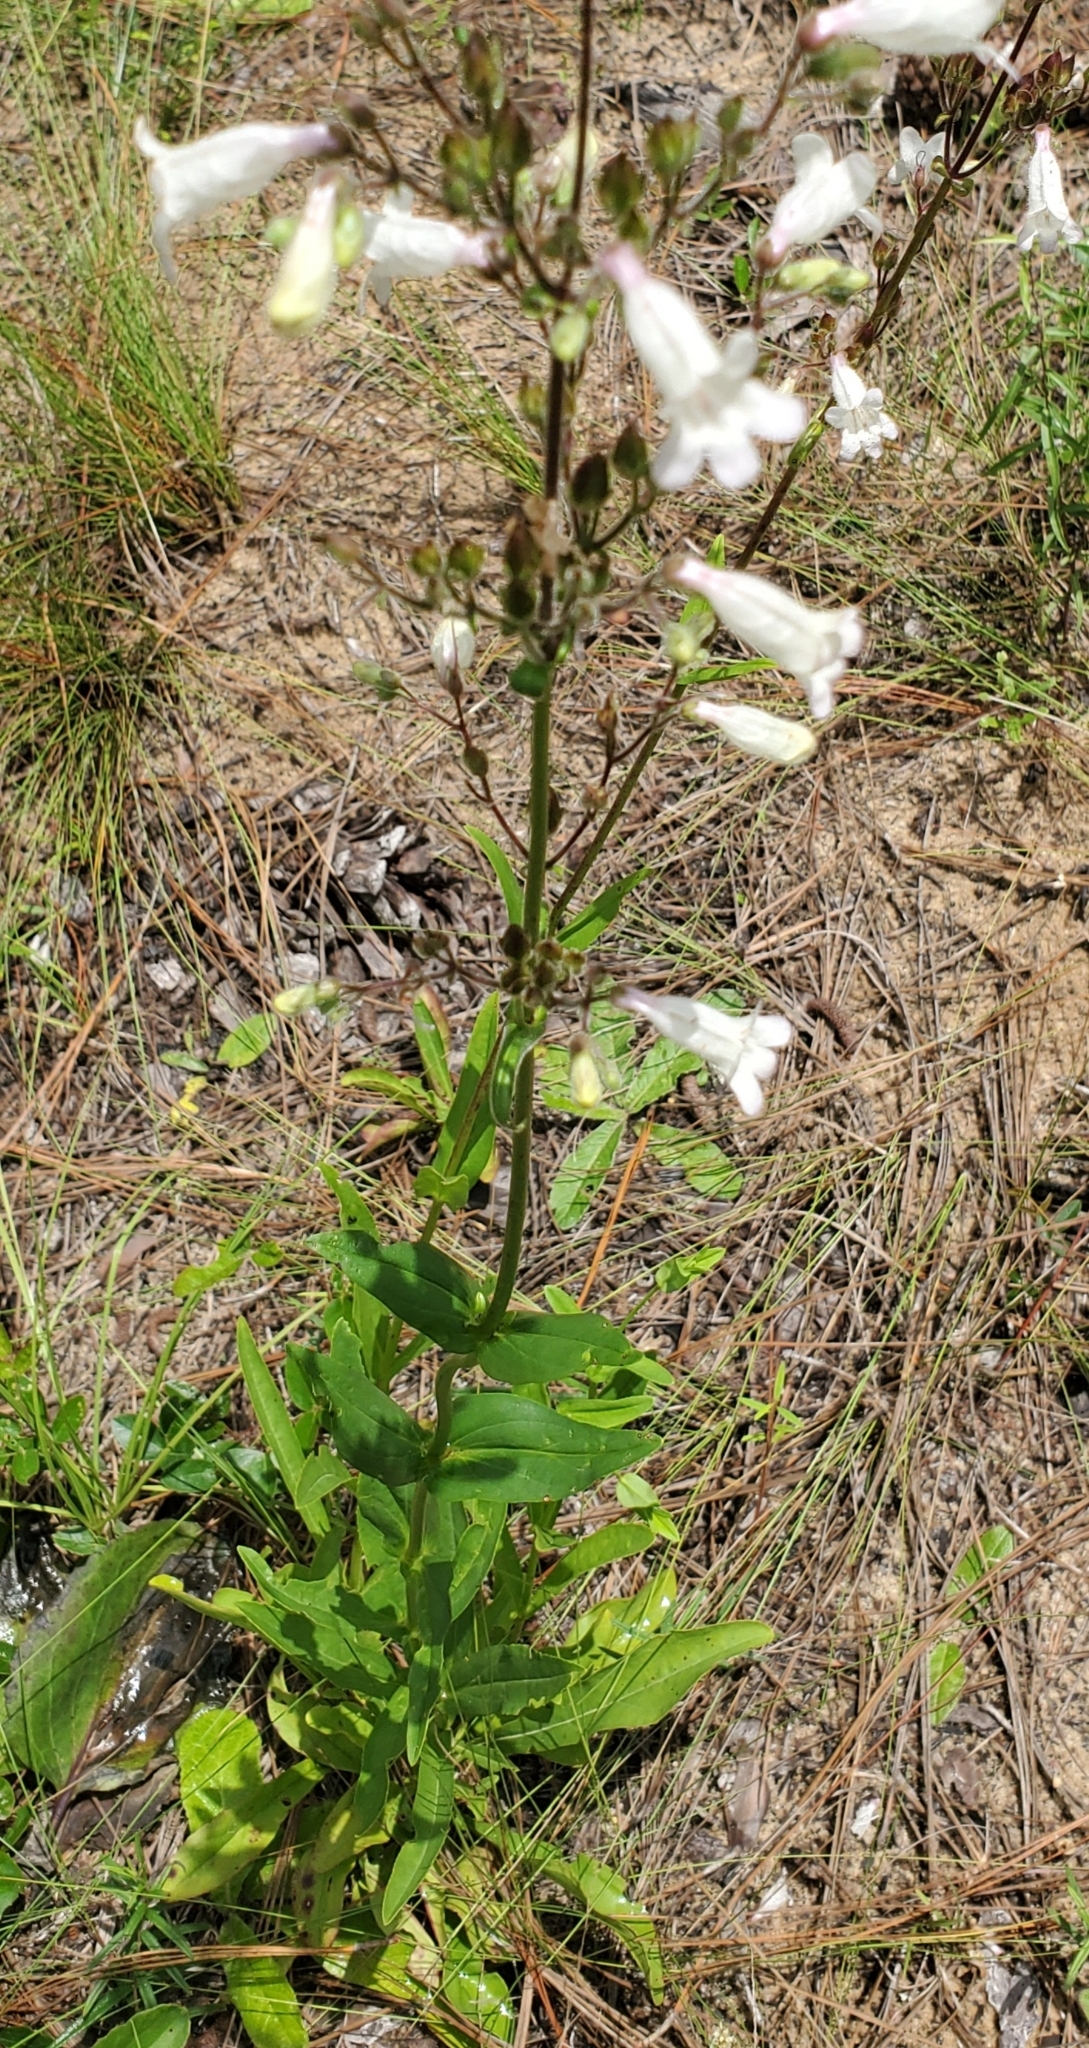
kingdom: Plantae
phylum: Tracheophyta
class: Magnoliopsida
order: Lamiales
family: Plantaginaceae
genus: Penstemon
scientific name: Penstemon multiflorus
